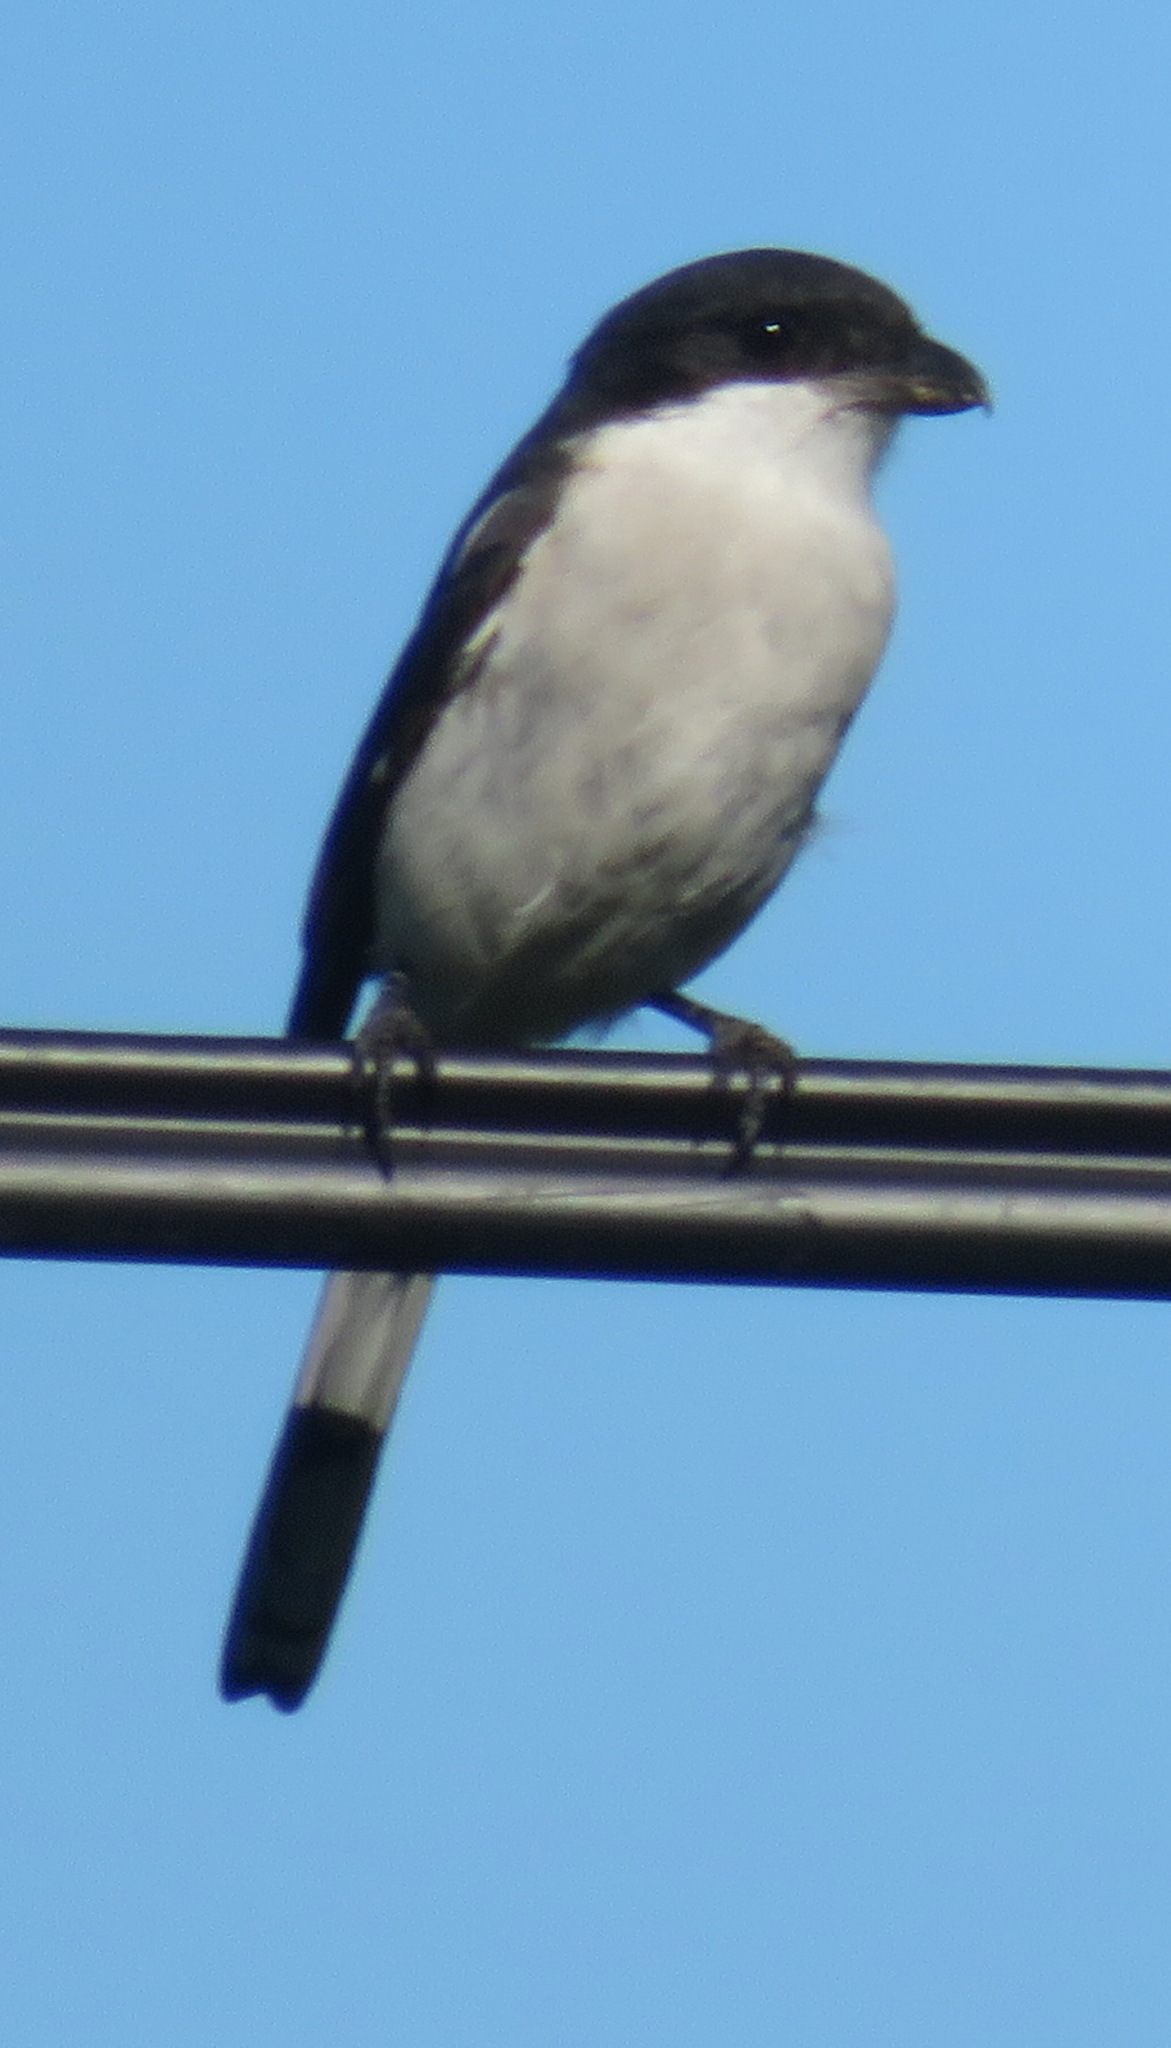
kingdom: Animalia
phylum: Chordata
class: Aves
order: Passeriformes
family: Laniidae
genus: Lanius
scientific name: Lanius collaris
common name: Southern fiscal
